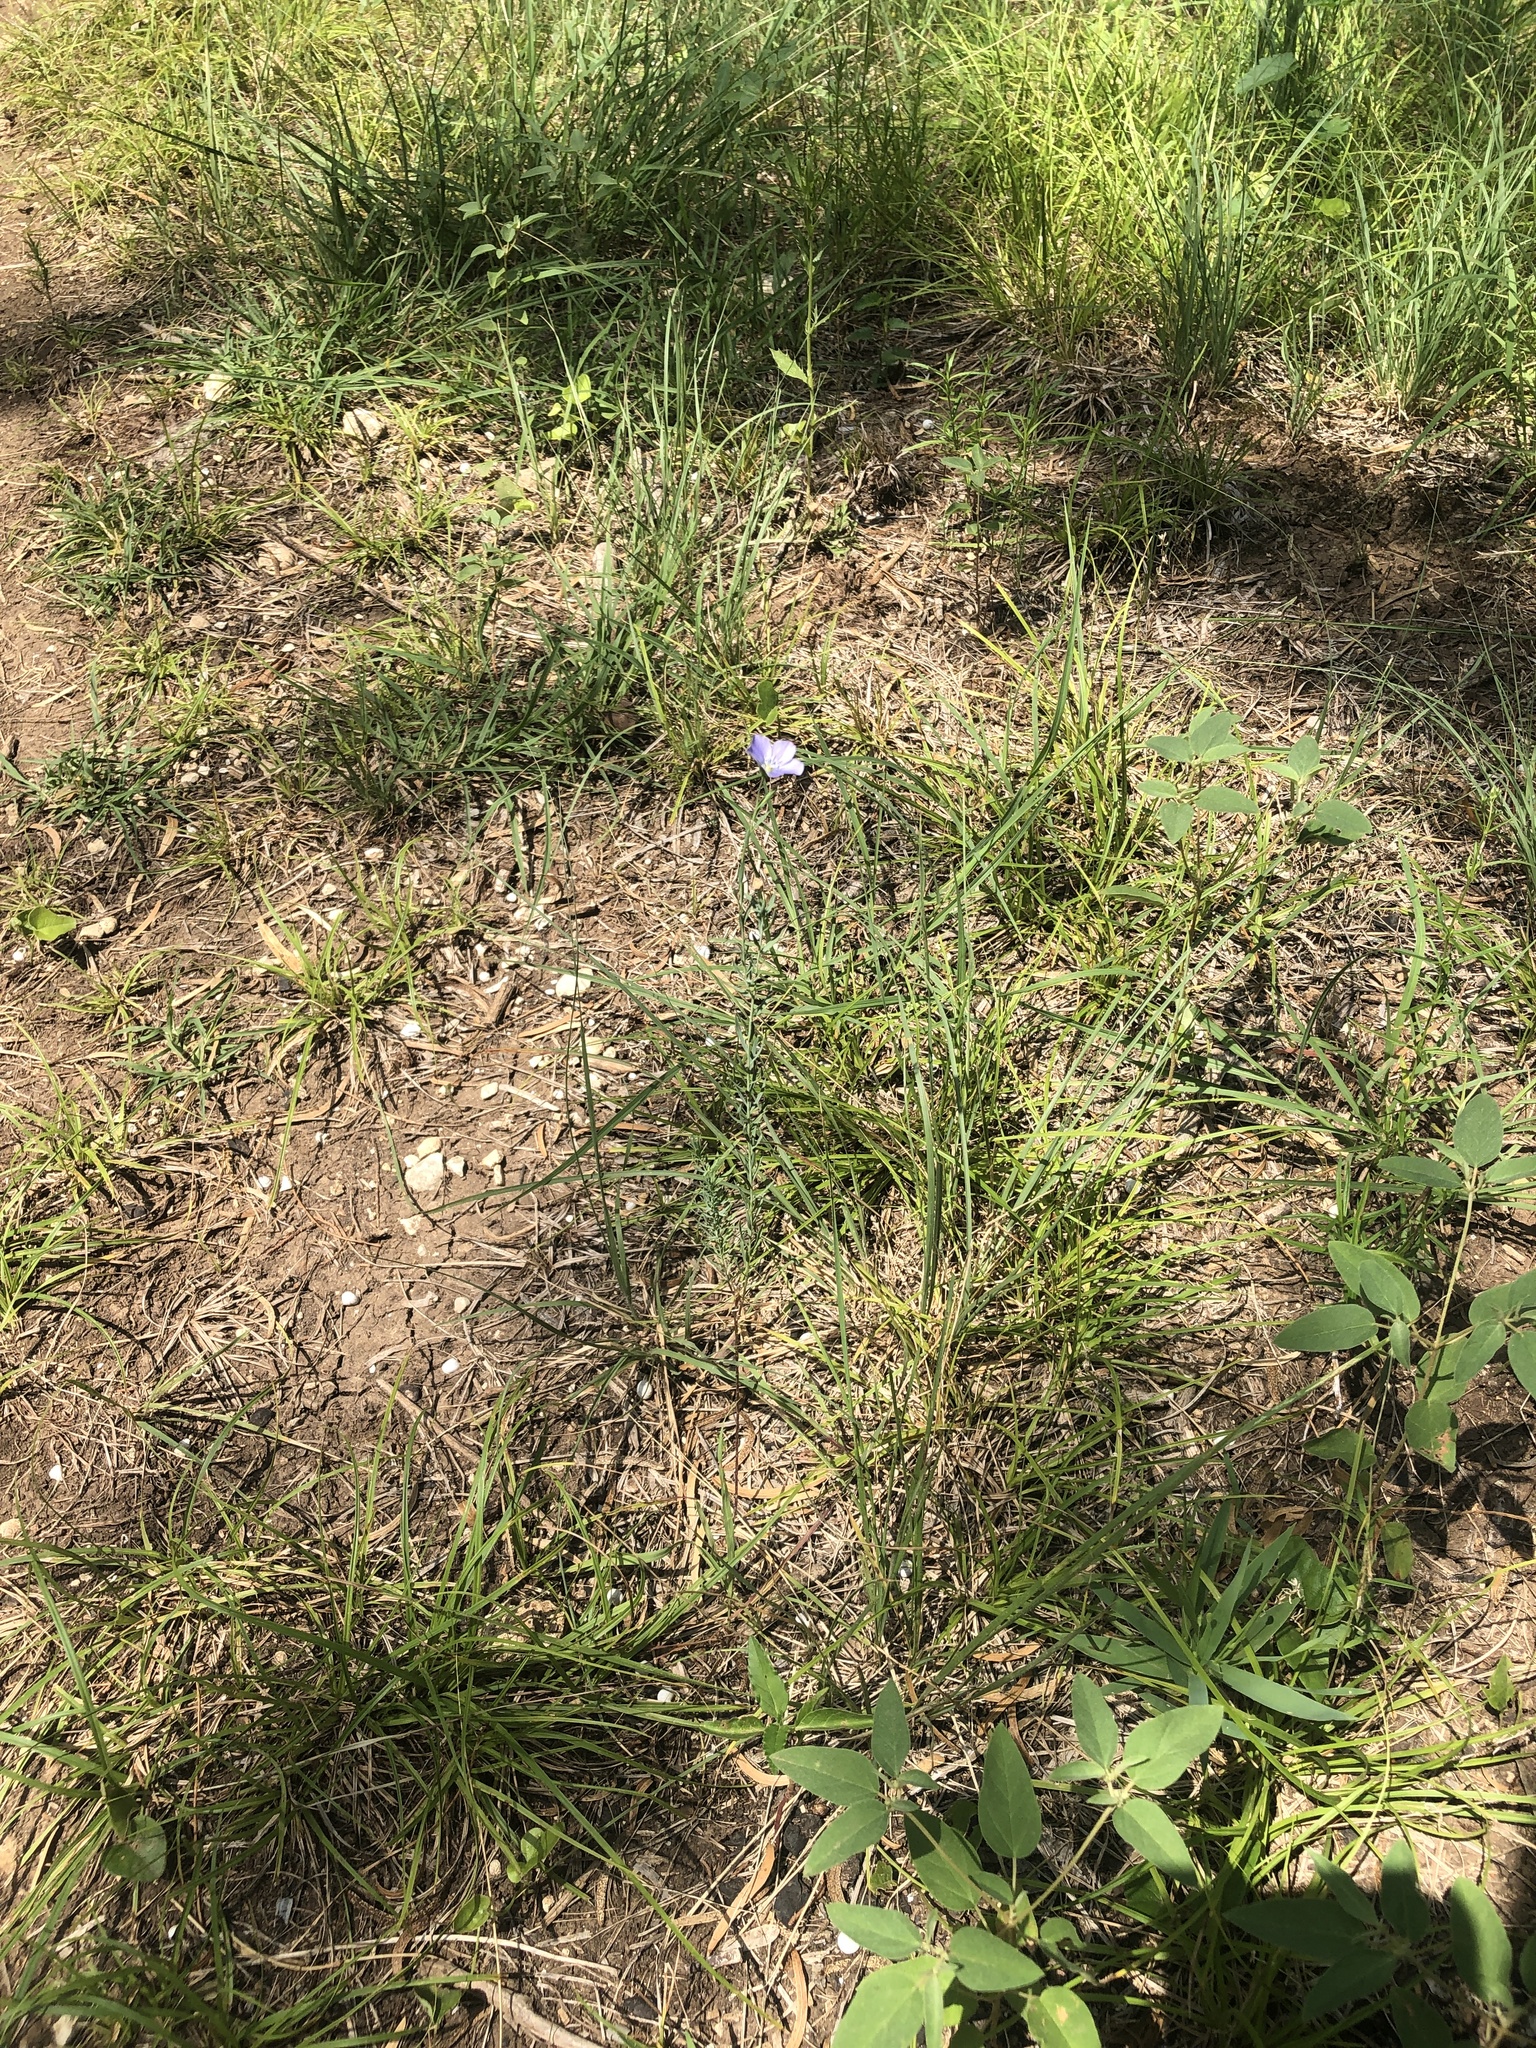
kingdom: Plantae
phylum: Tracheophyta
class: Magnoliopsida
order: Malpighiales
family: Linaceae
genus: Linum
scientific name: Linum pratense
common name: Norton's flax
